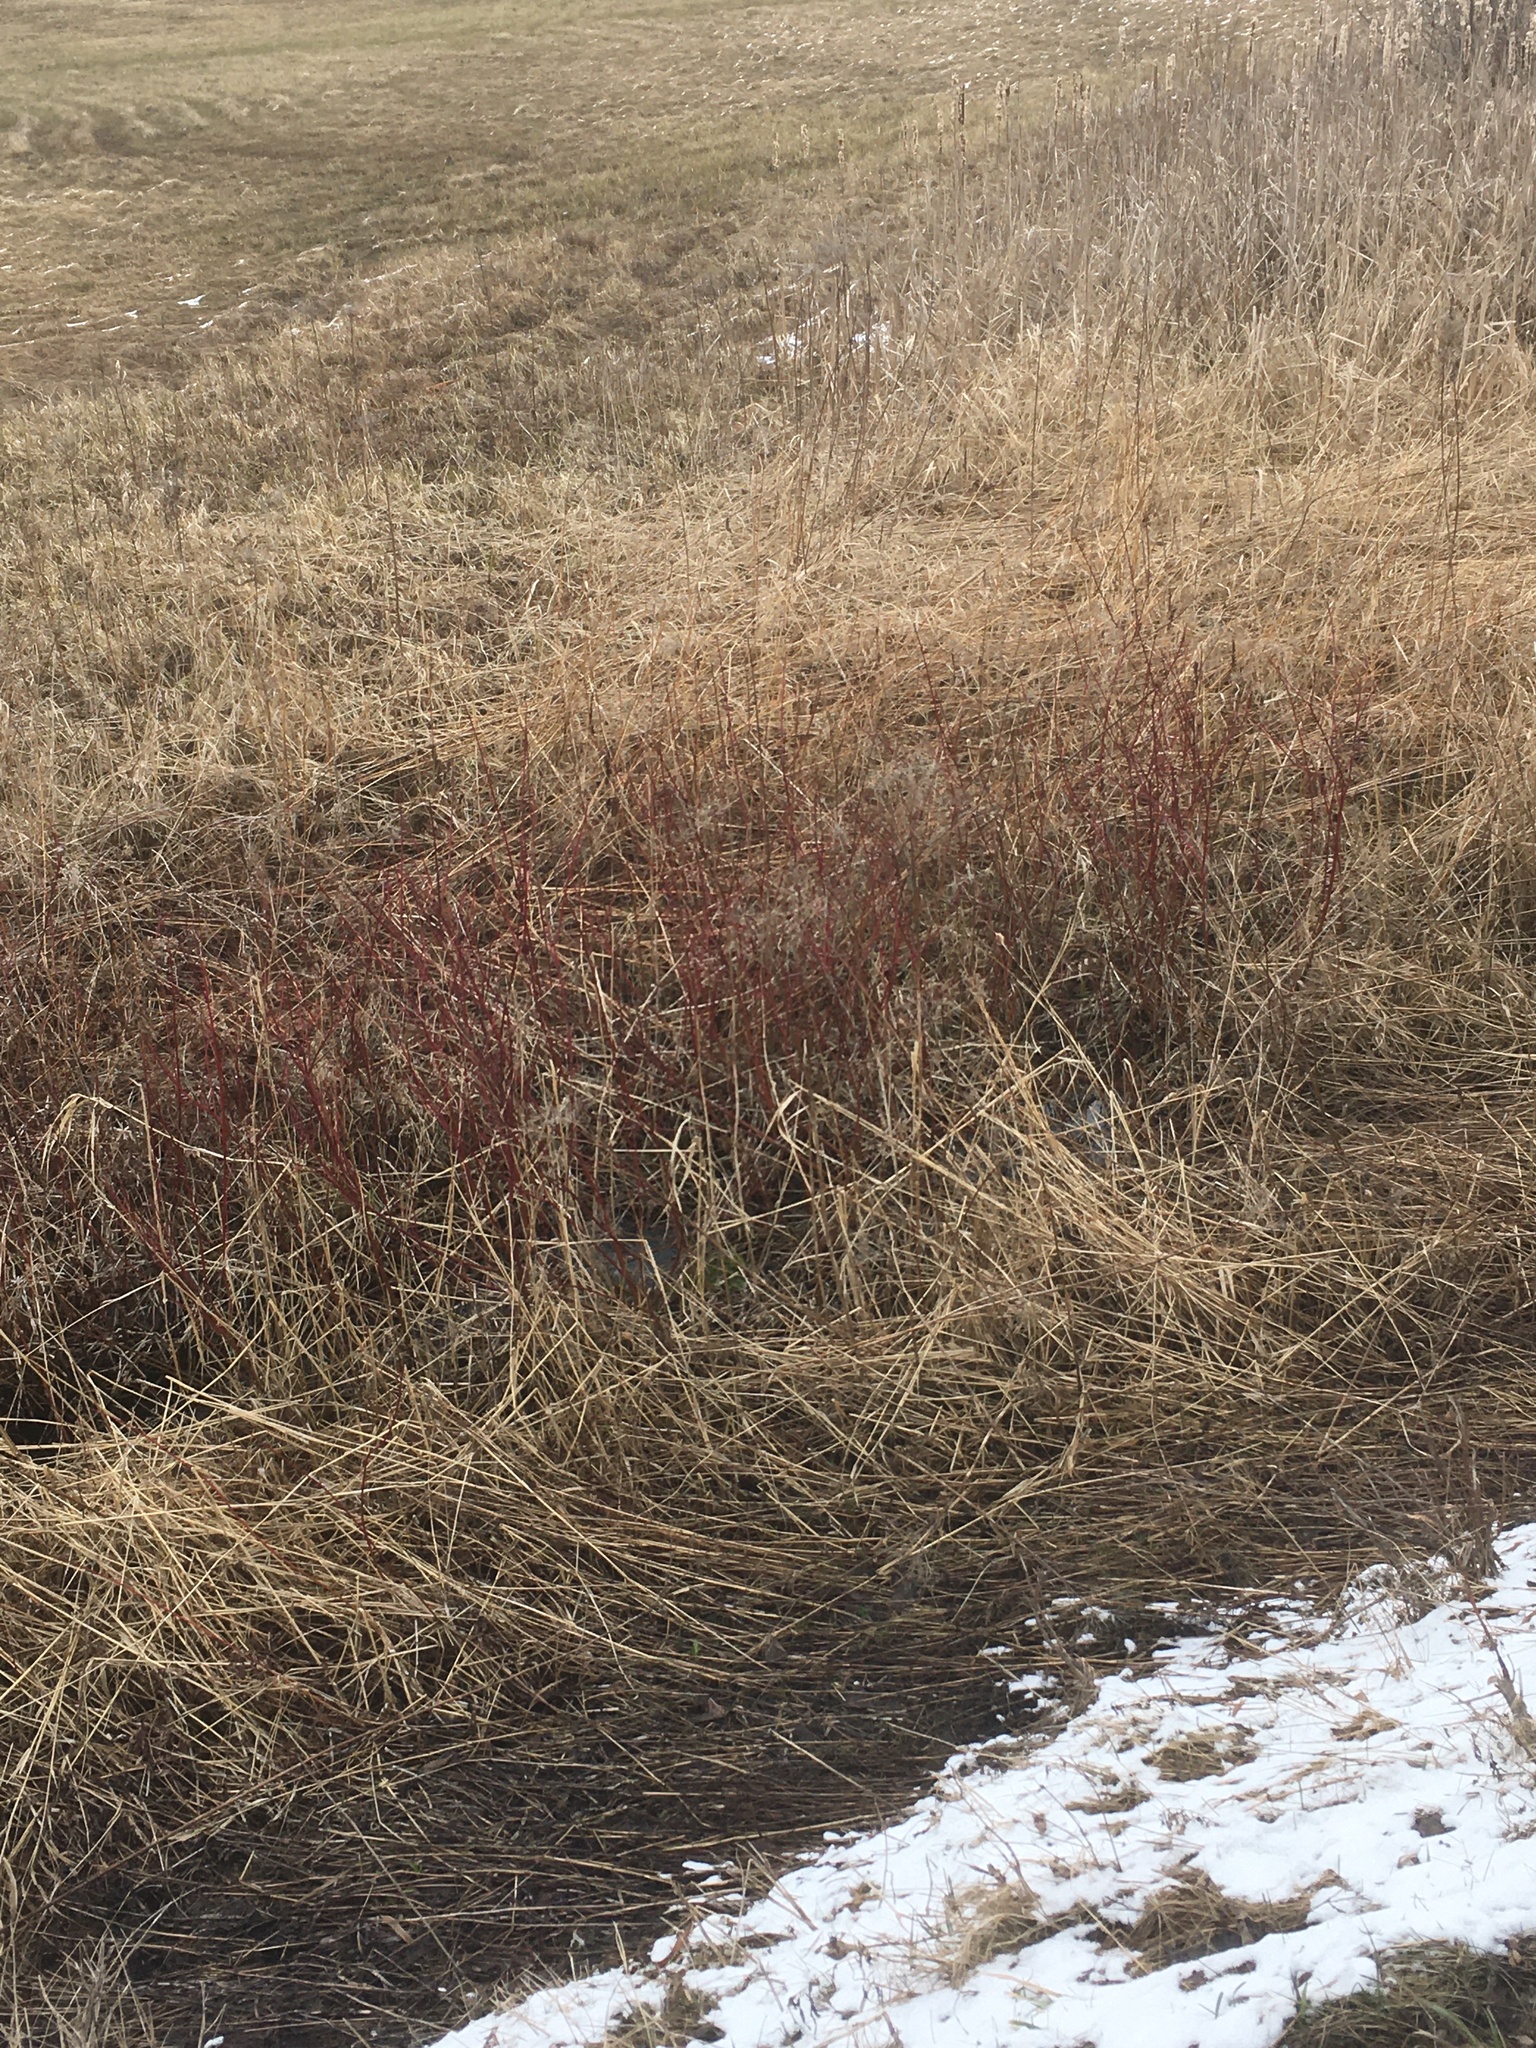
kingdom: Plantae
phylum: Tracheophyta
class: Magnoliopsida
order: Cornales
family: Cornaceae
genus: Cornus
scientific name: Cornus sericea
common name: Red-osier dogwood
